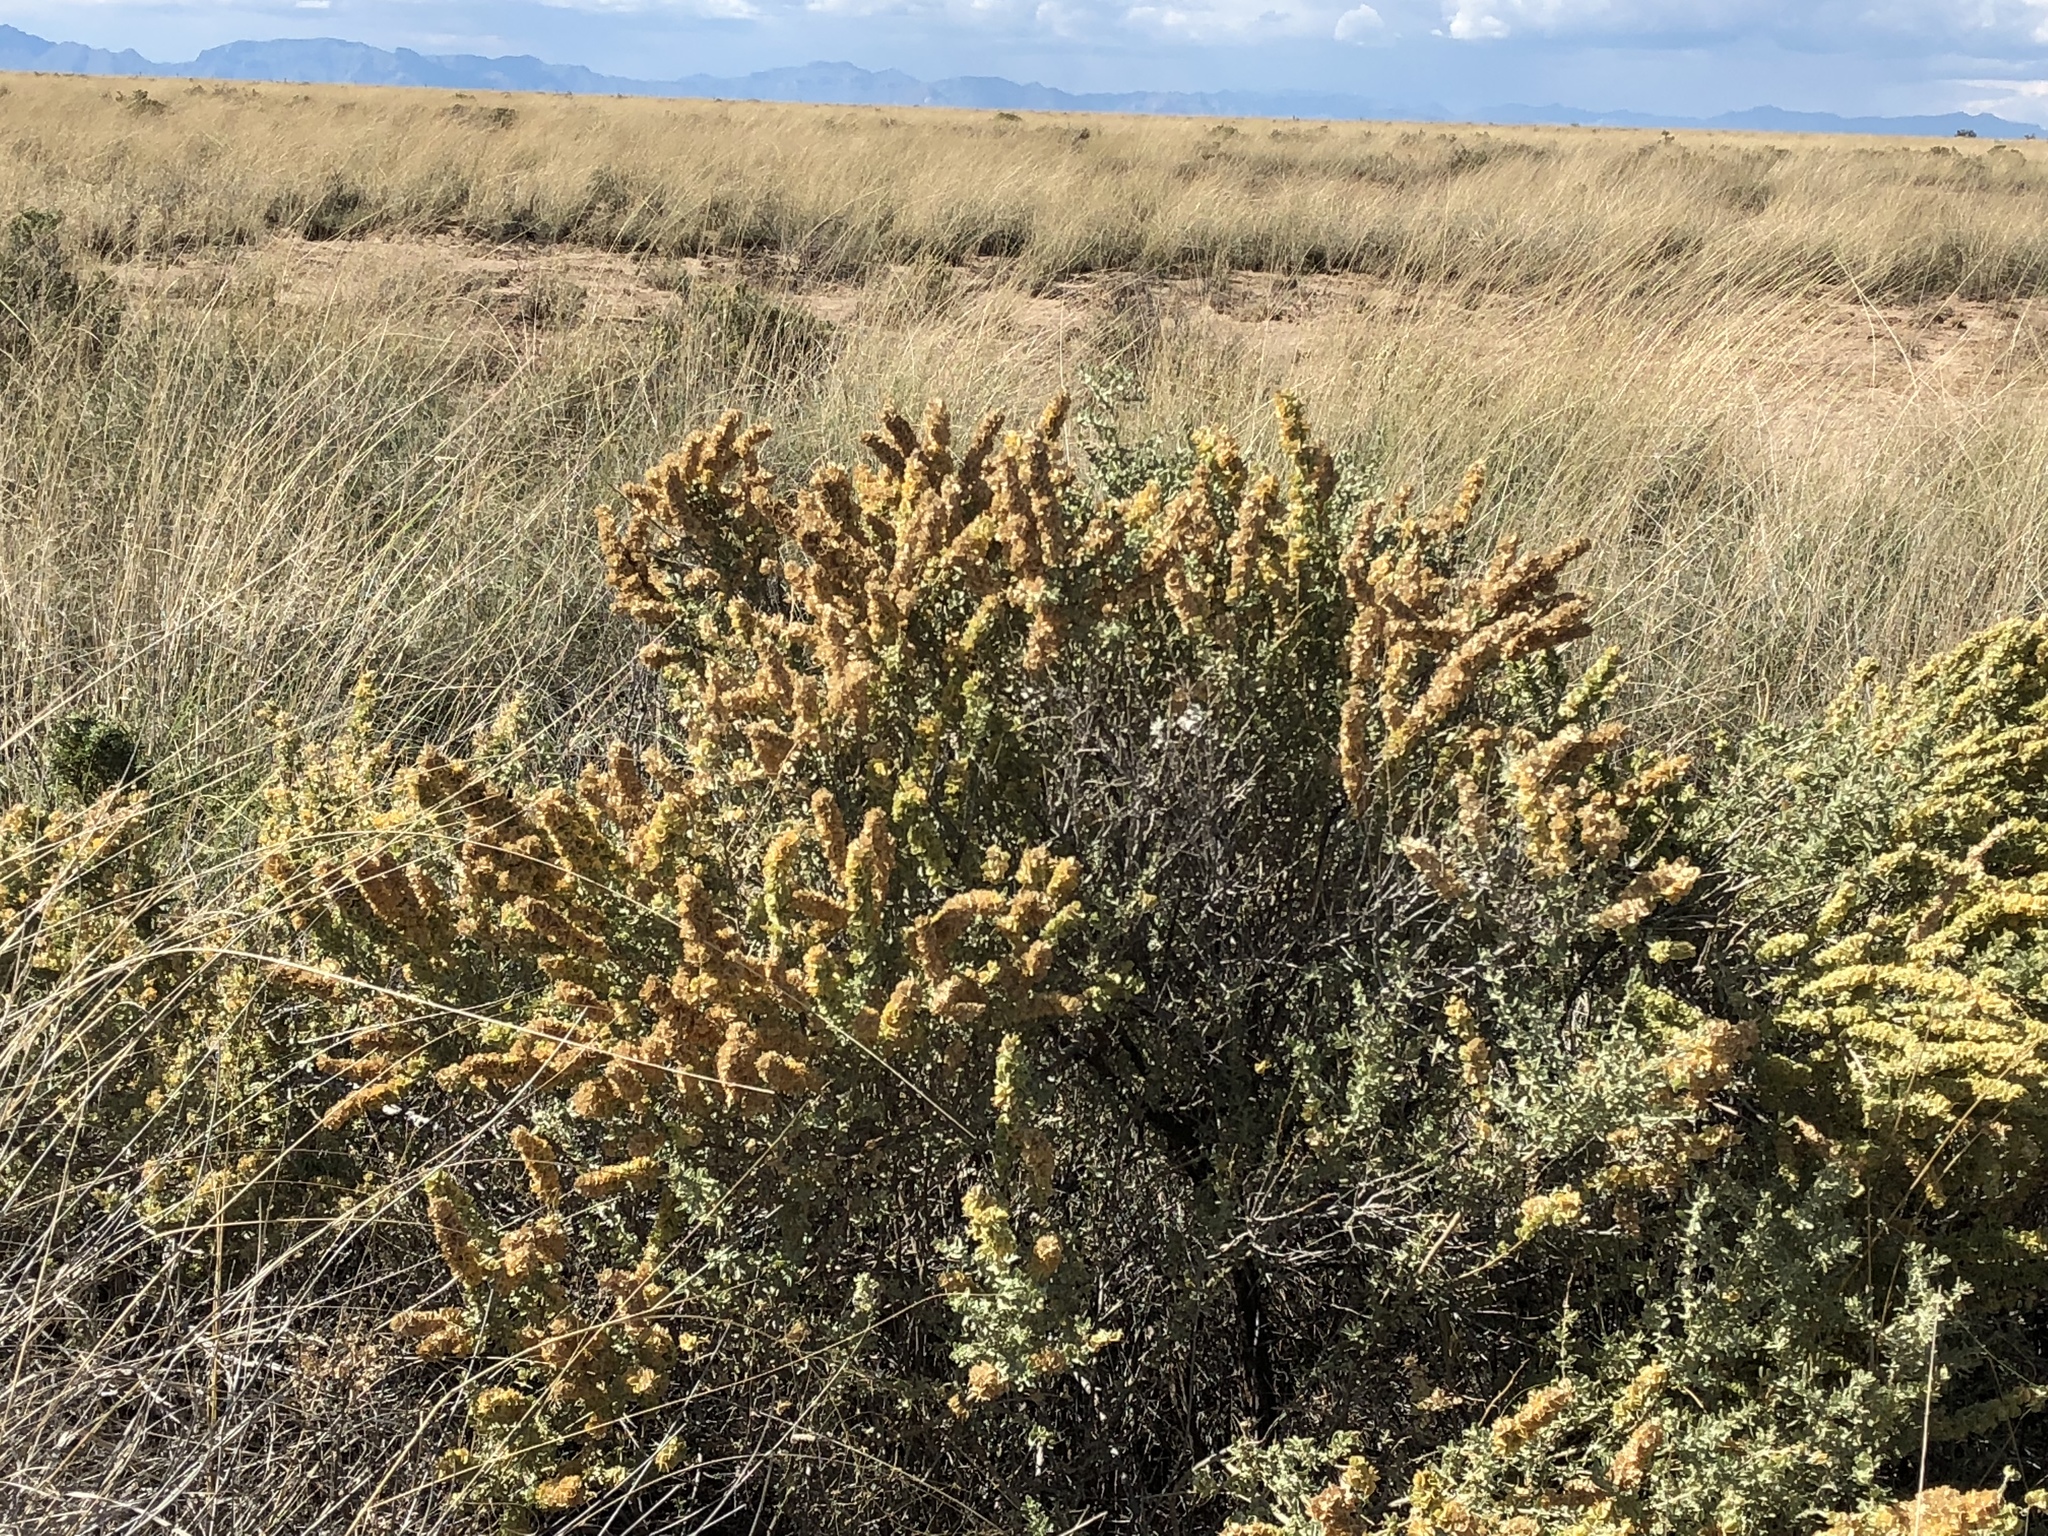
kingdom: Plantae
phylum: Tracheophyta
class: Magnoliopsida
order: Caryophyllales
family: Amaranthaceae
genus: Atriplex
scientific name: Atriplex canescens
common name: Four-wing saltbush
